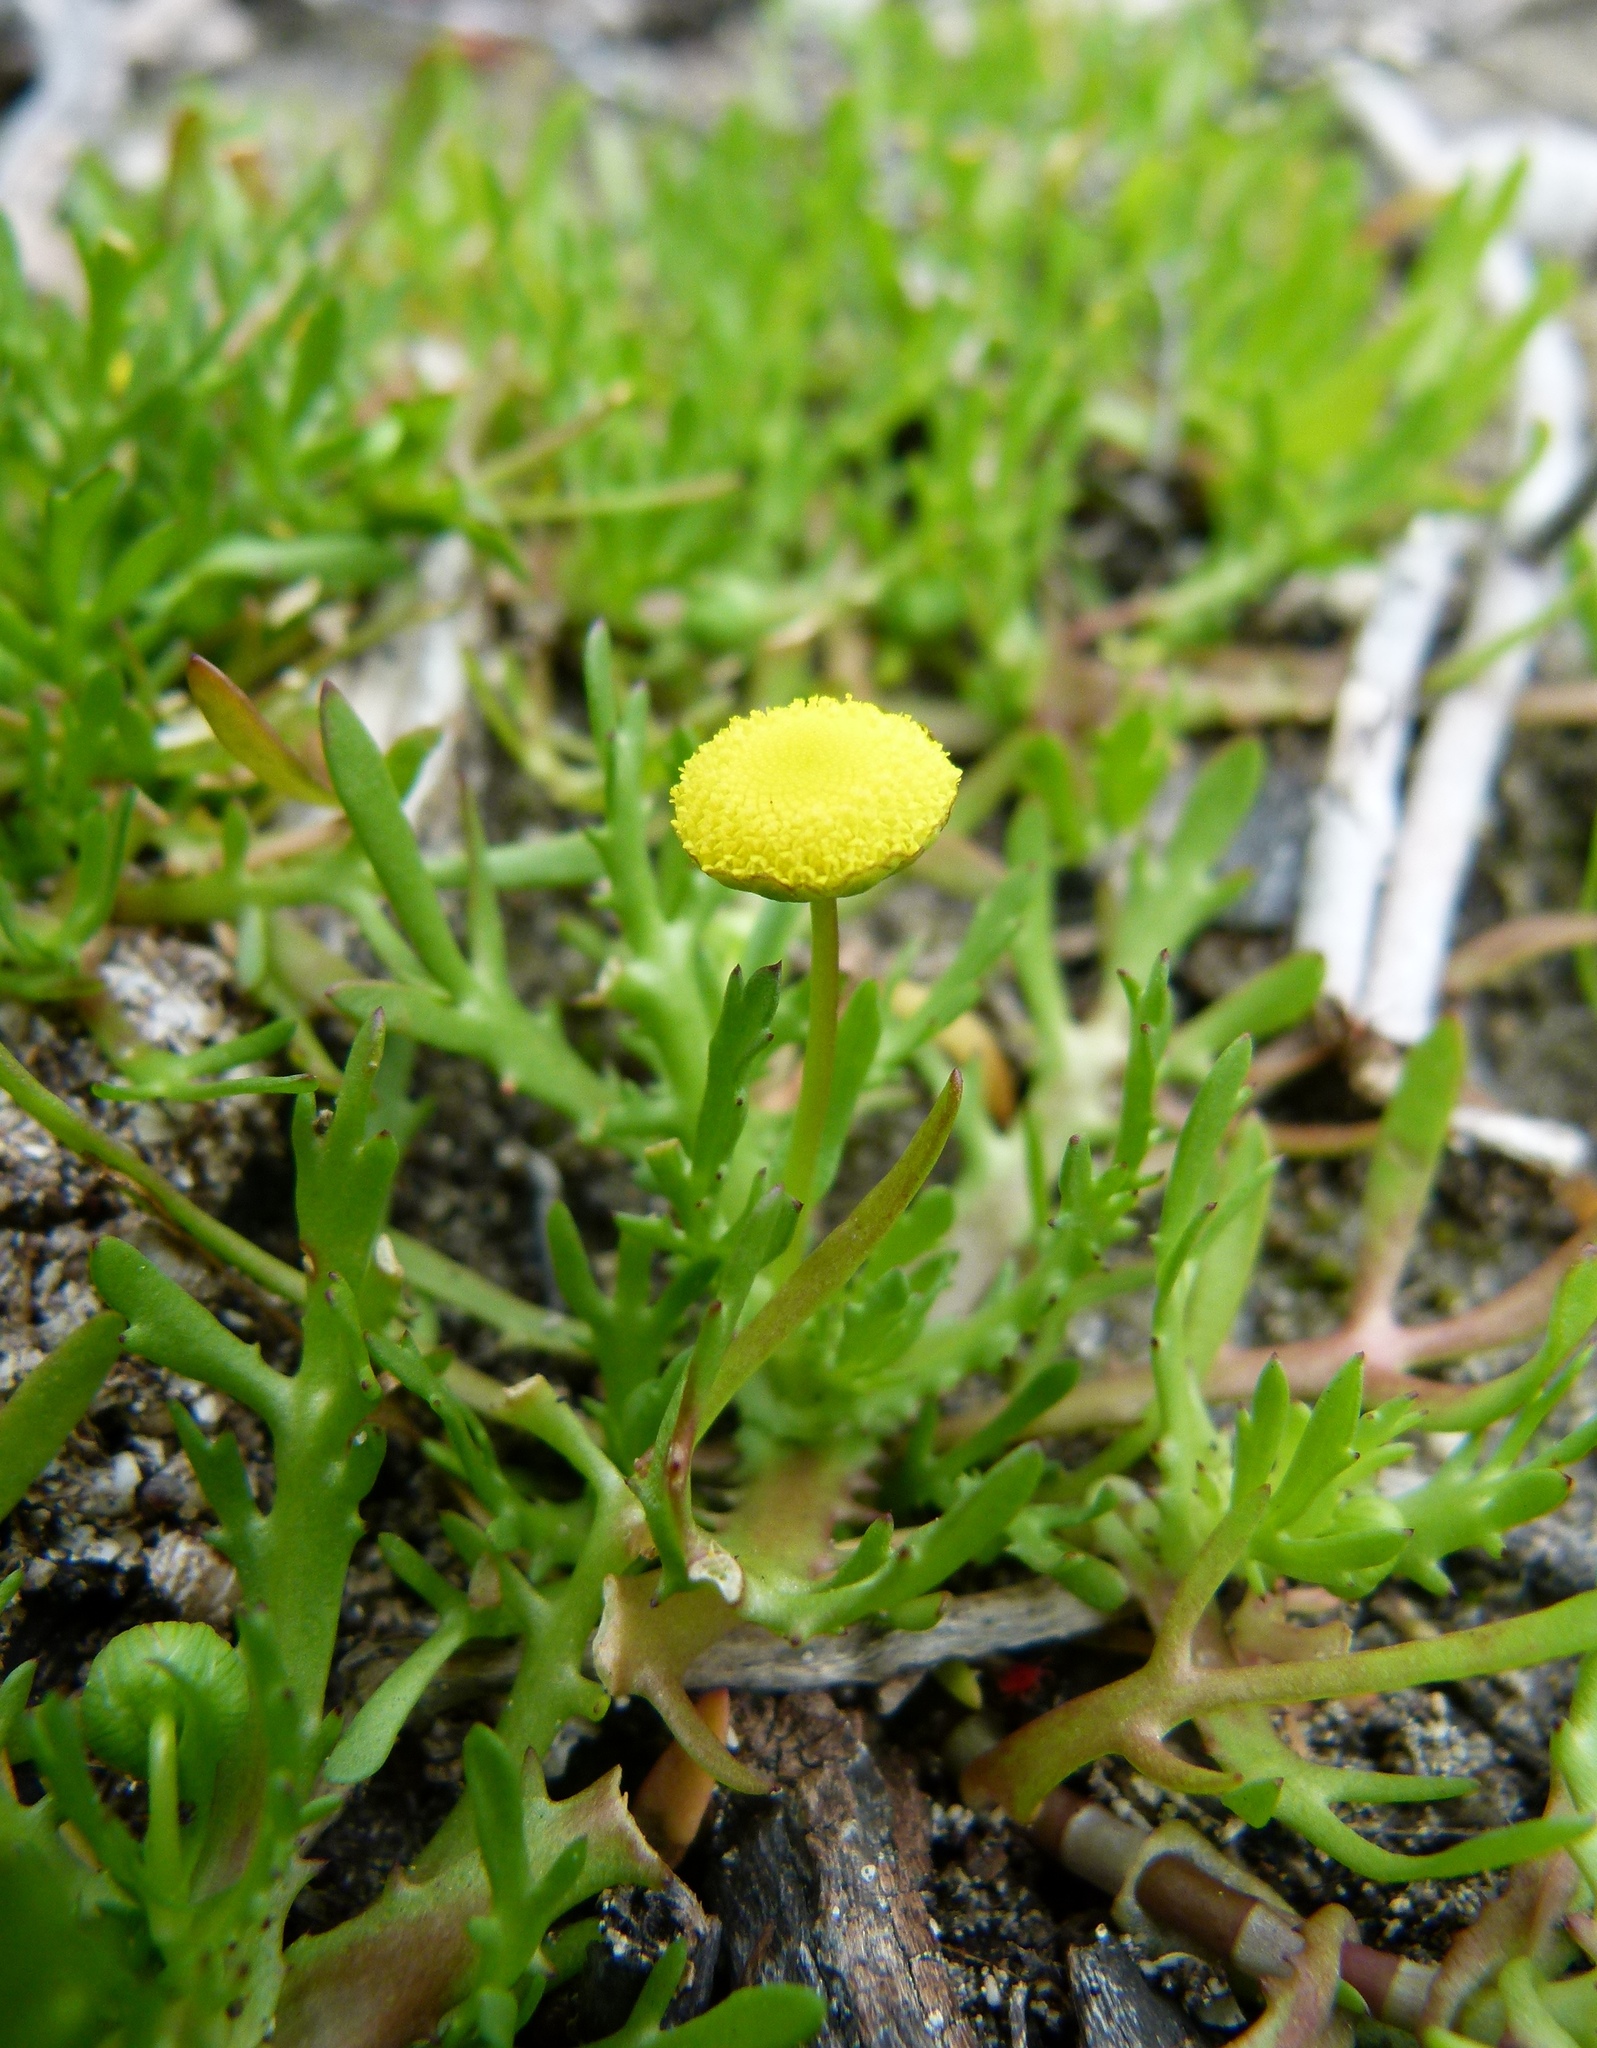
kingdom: Plantae
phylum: Tracheophyta
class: Magnoliopsida
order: Asterales
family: Asteraceae
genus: Cotula
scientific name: Cotula coronopifolia
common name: Buttonweed
